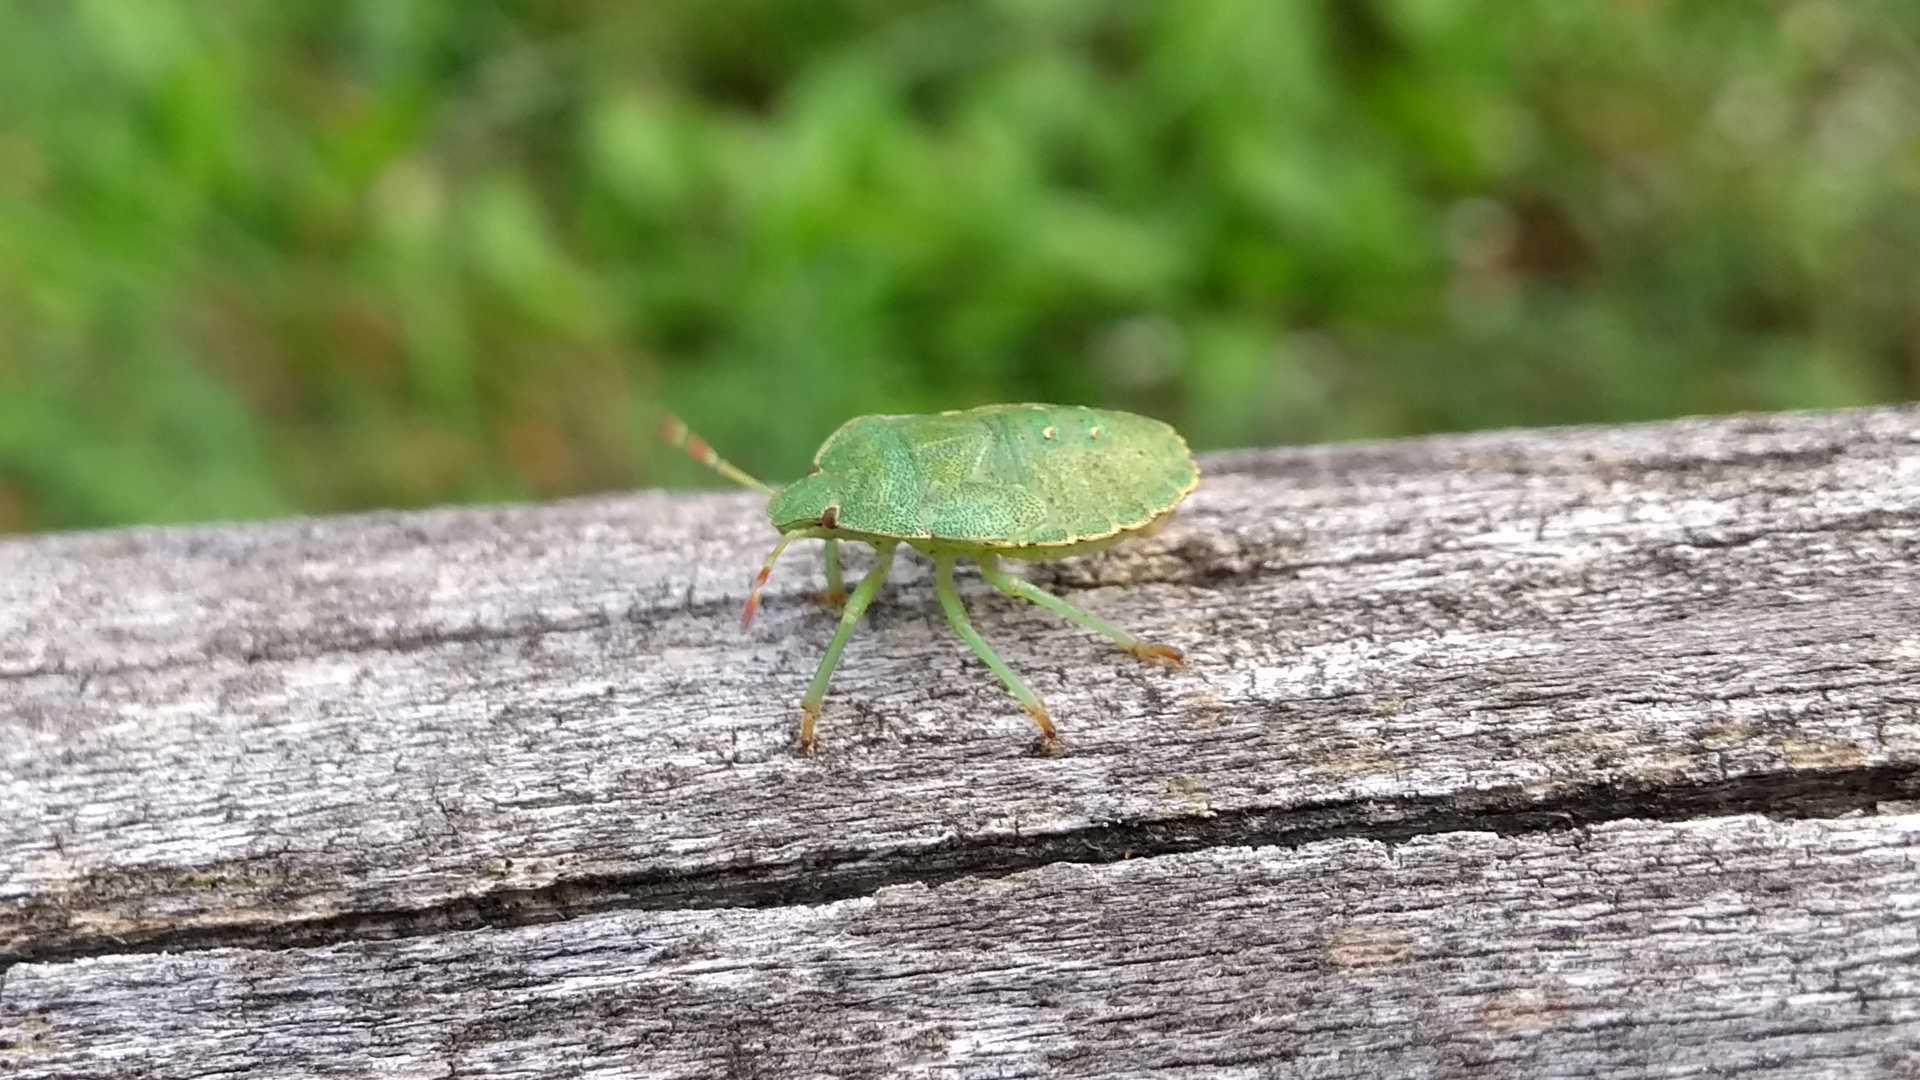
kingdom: Animalia
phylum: Arthropoda
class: Insecta
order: Hemiptera
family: Pentatomidae
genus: Palomena
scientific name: Palomena prasina
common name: Green shieldbug
